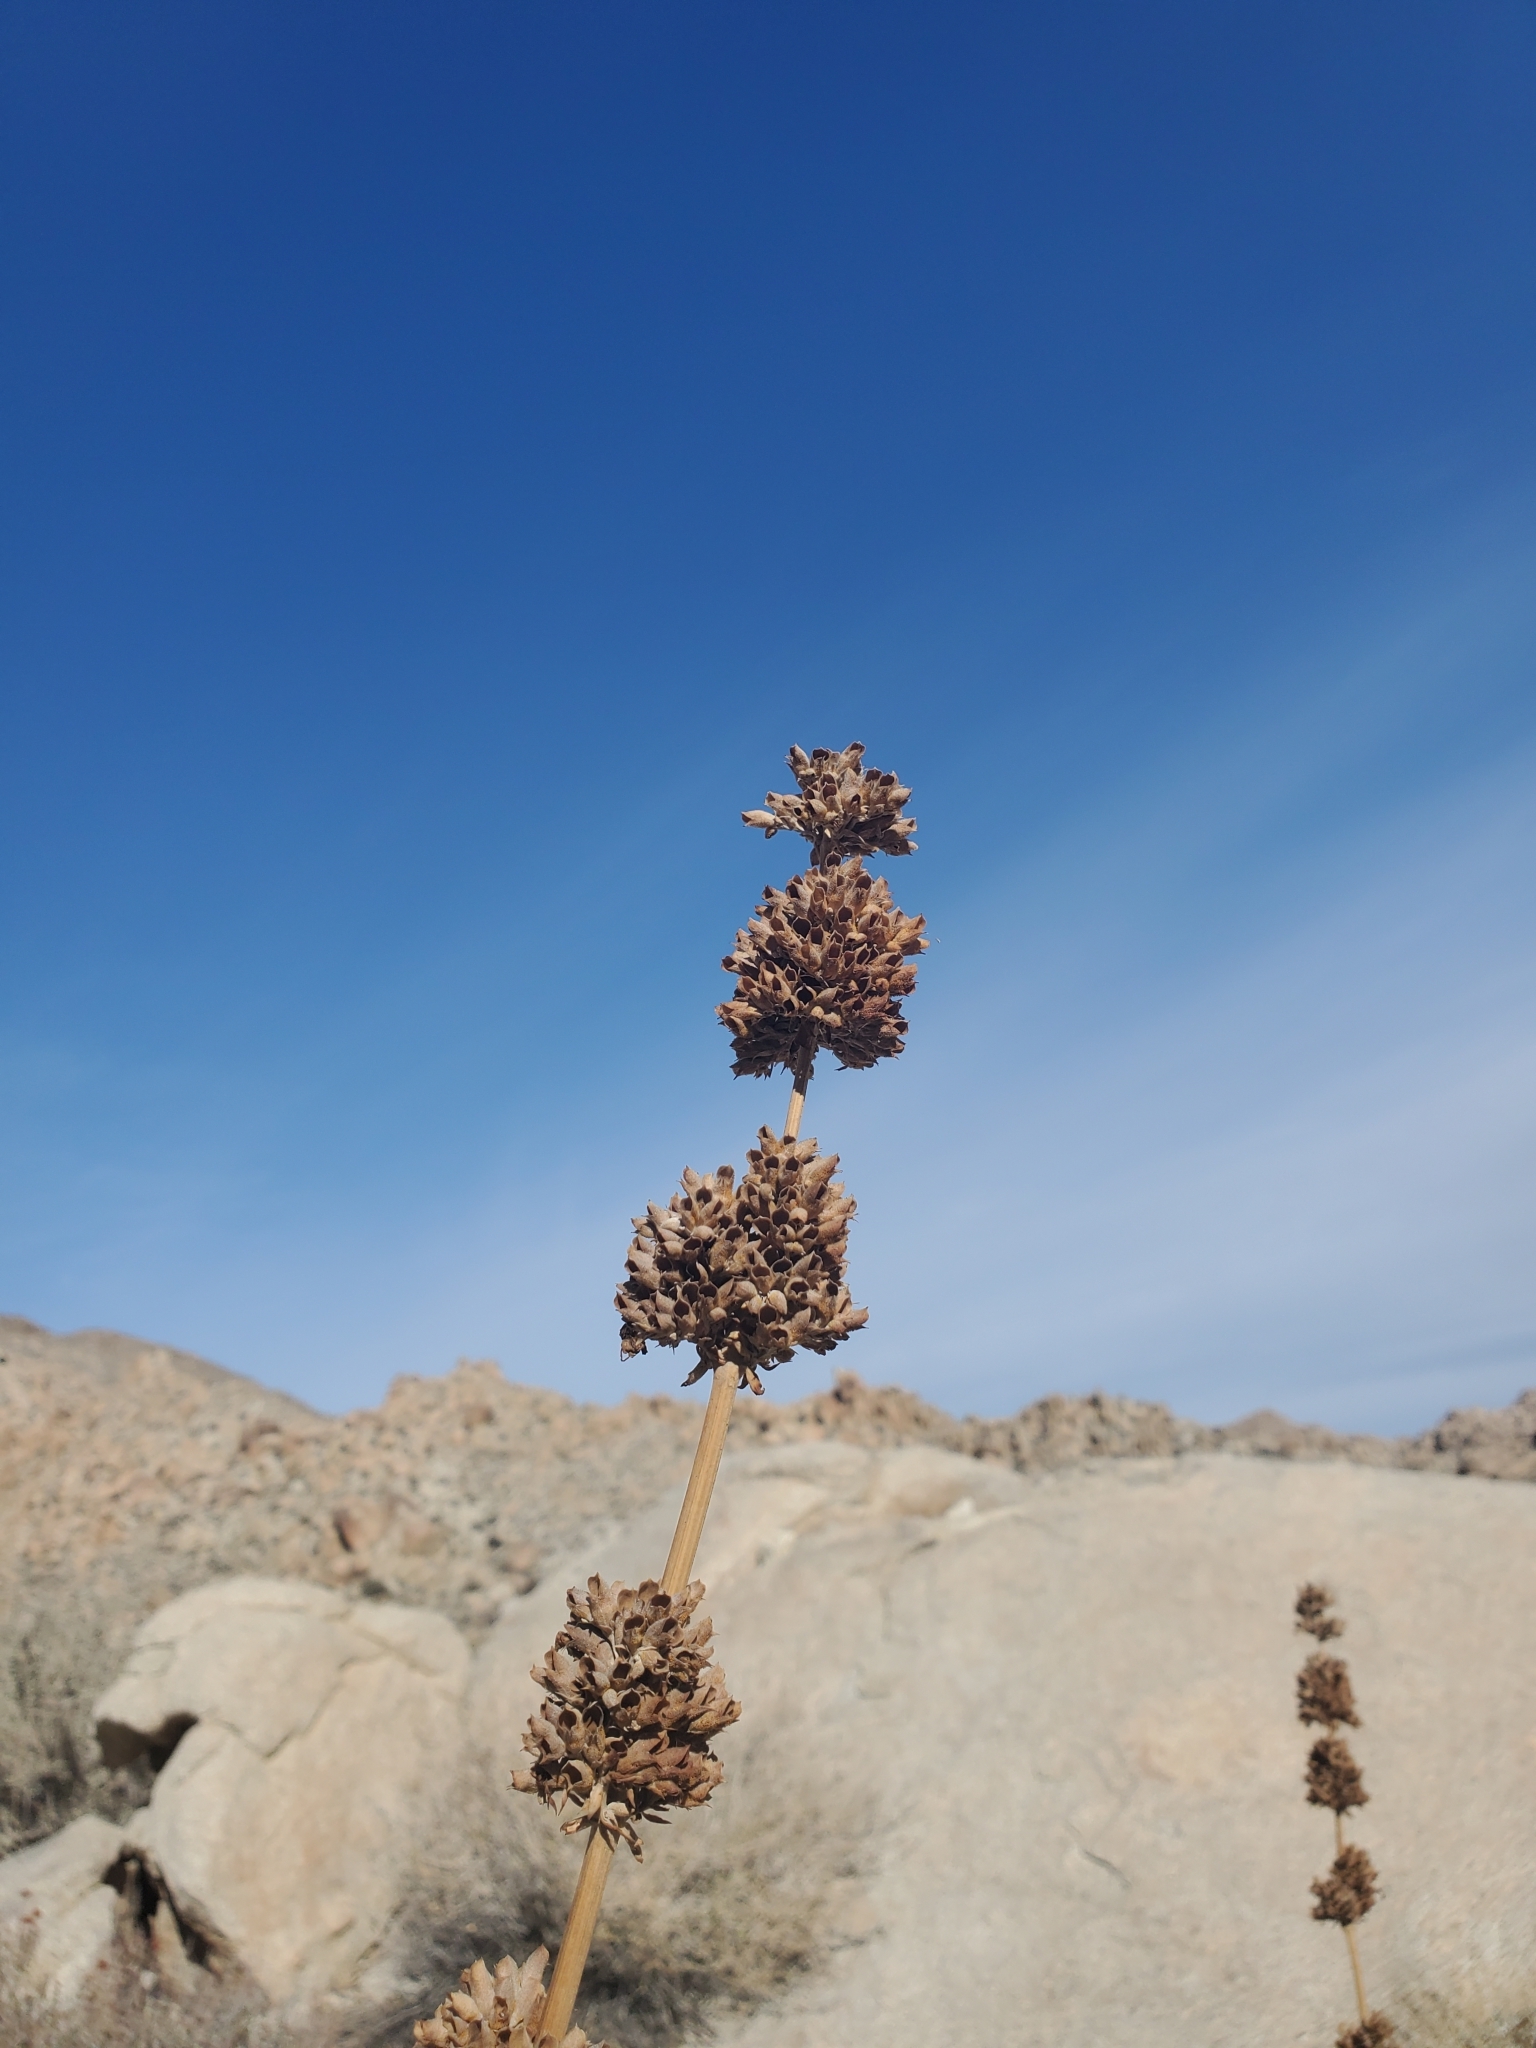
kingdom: Plantae
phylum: Tracheophyta
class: Magnoliopsida
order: Lamiales
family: Lamiaceae
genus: Salvia
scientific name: Salvia apiana
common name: White sage
